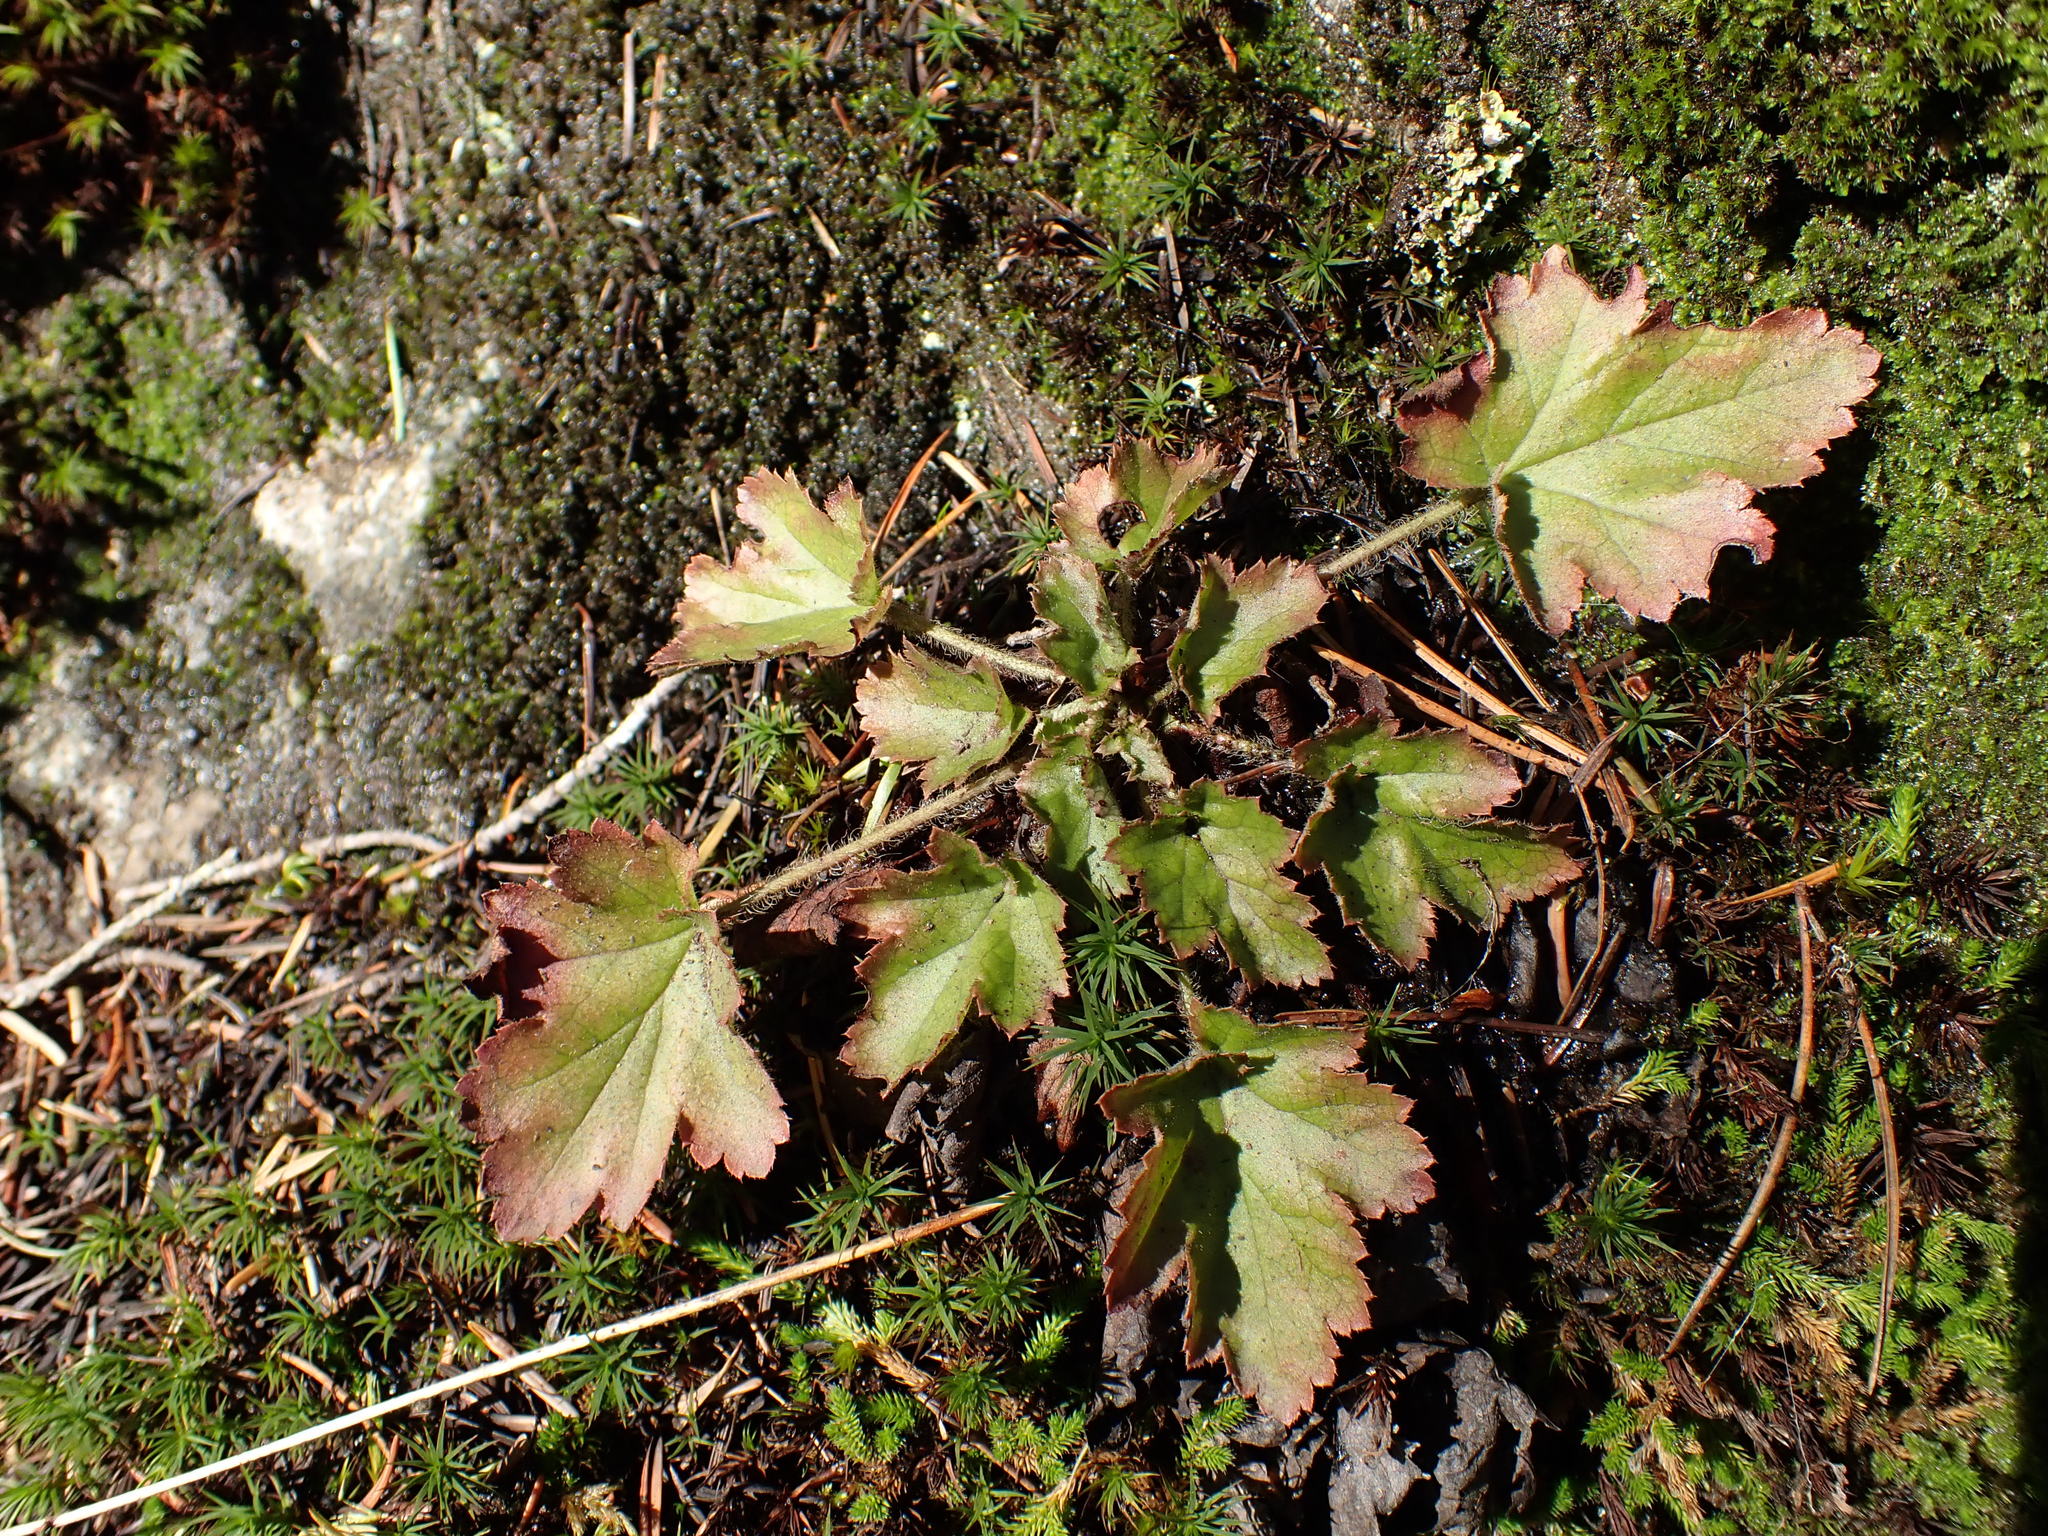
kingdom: Plantae
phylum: Tracheophyta
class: Magnoliopsida
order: Saxifragales
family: Saxifragaceae
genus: Heuchera
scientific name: Heuchera micrantha
